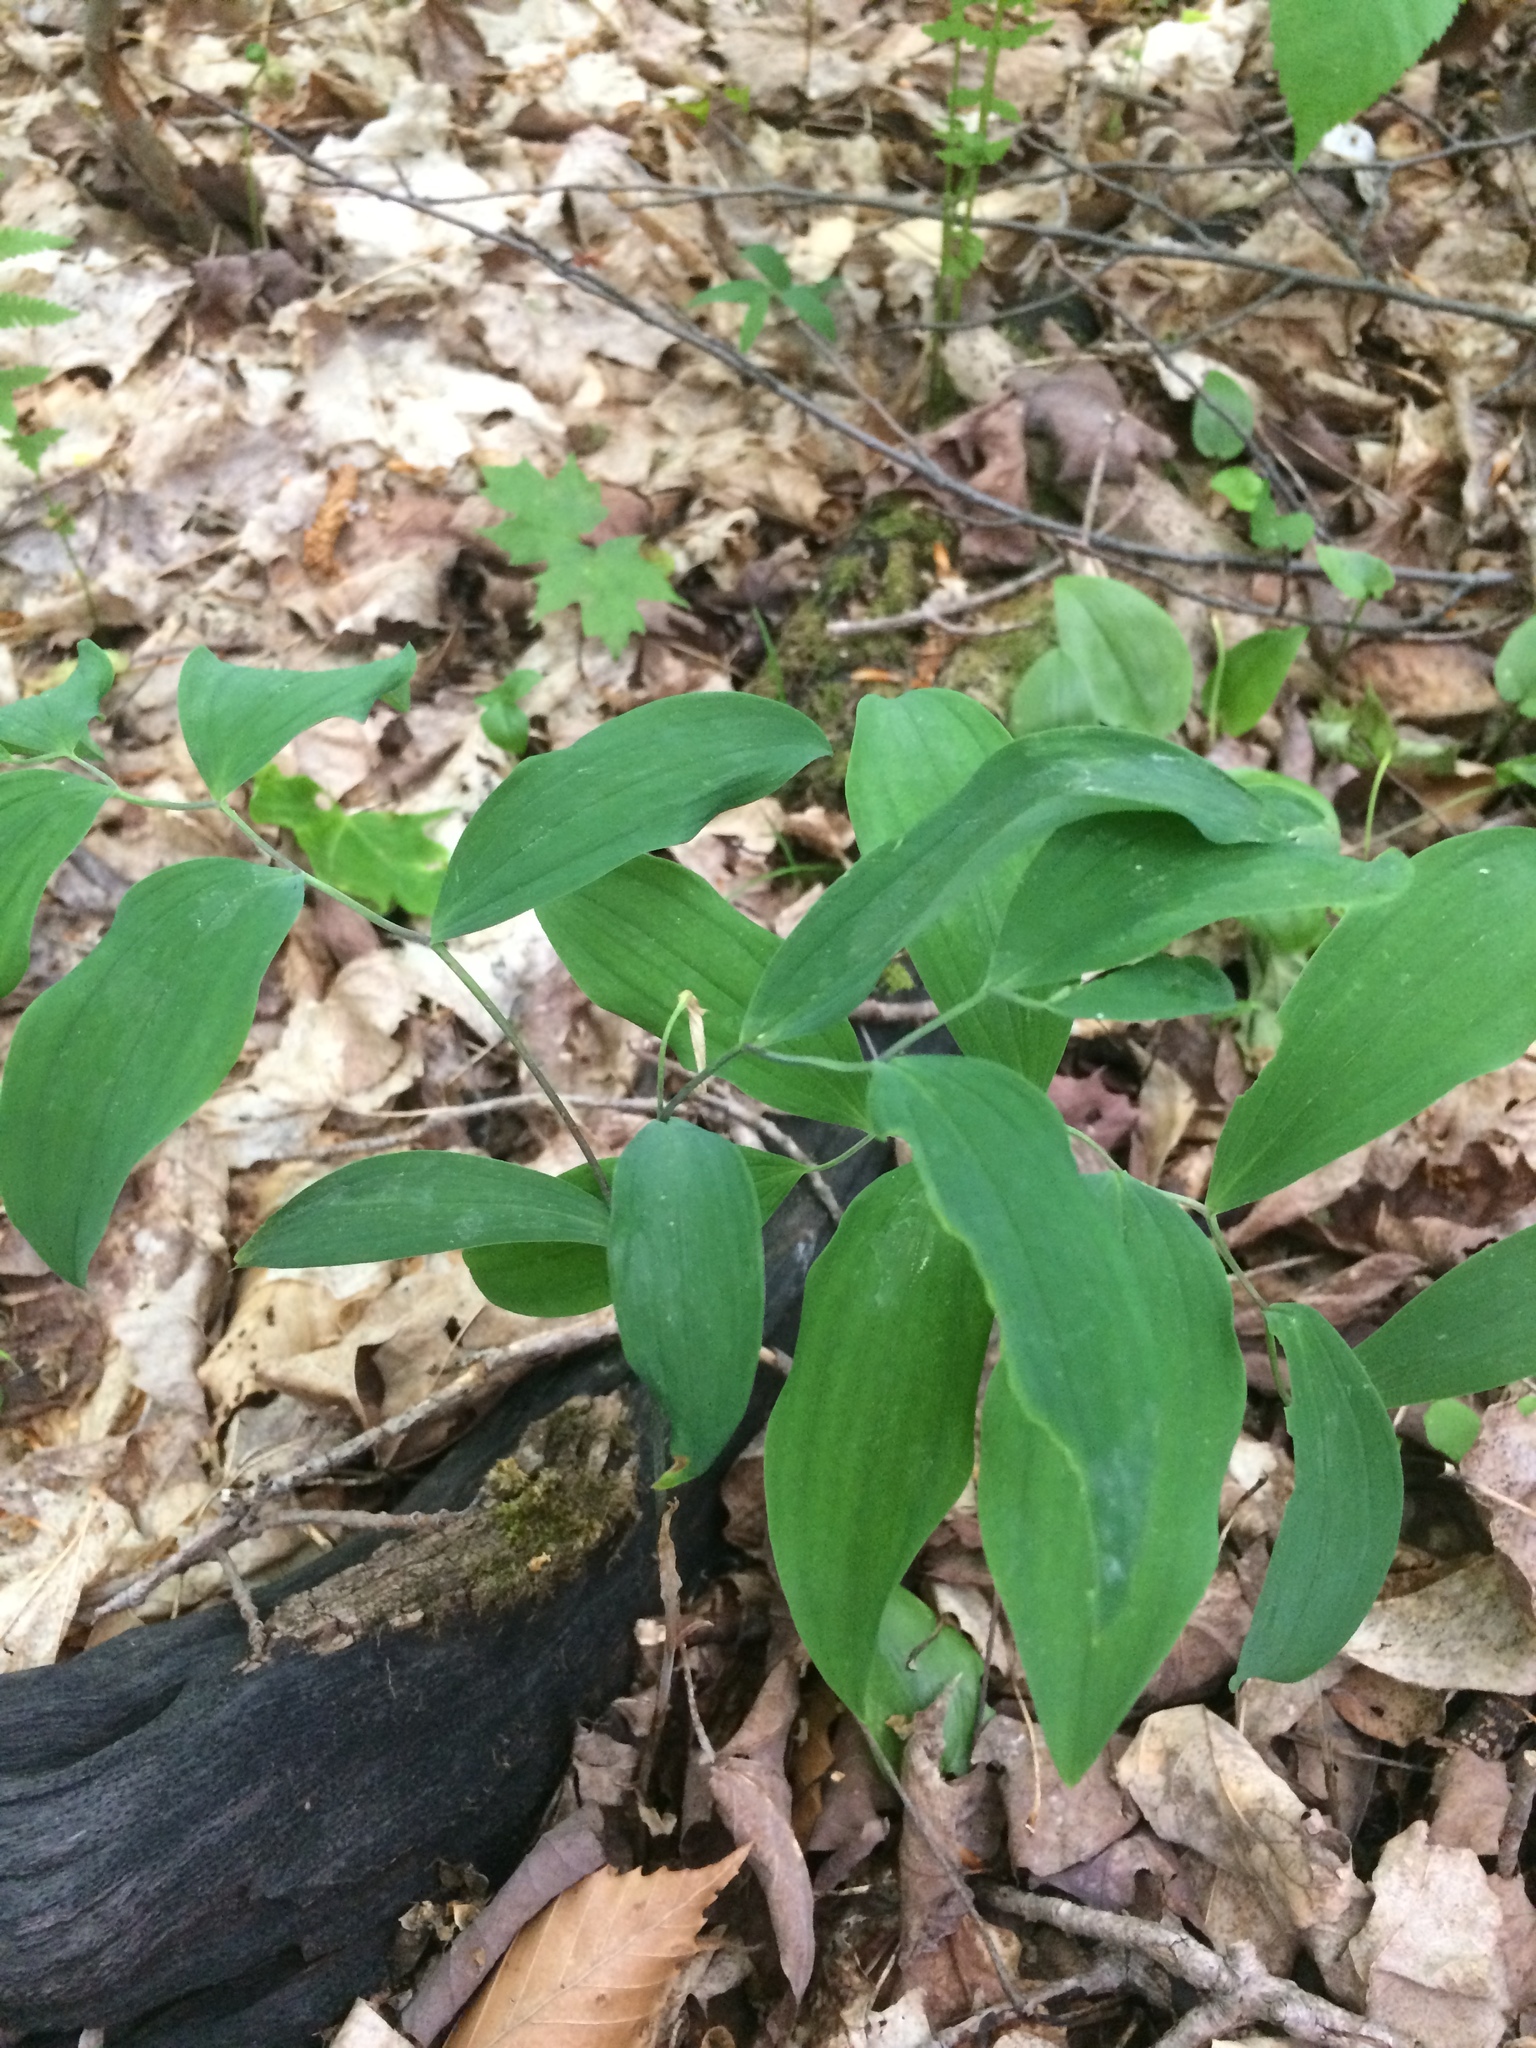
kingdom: Plantae
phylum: Tracheophyta
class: Liliopsida
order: Liliales
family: Colchicaceae
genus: Uvularia
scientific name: Uvularia sessilifolia
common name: Straw-lily
